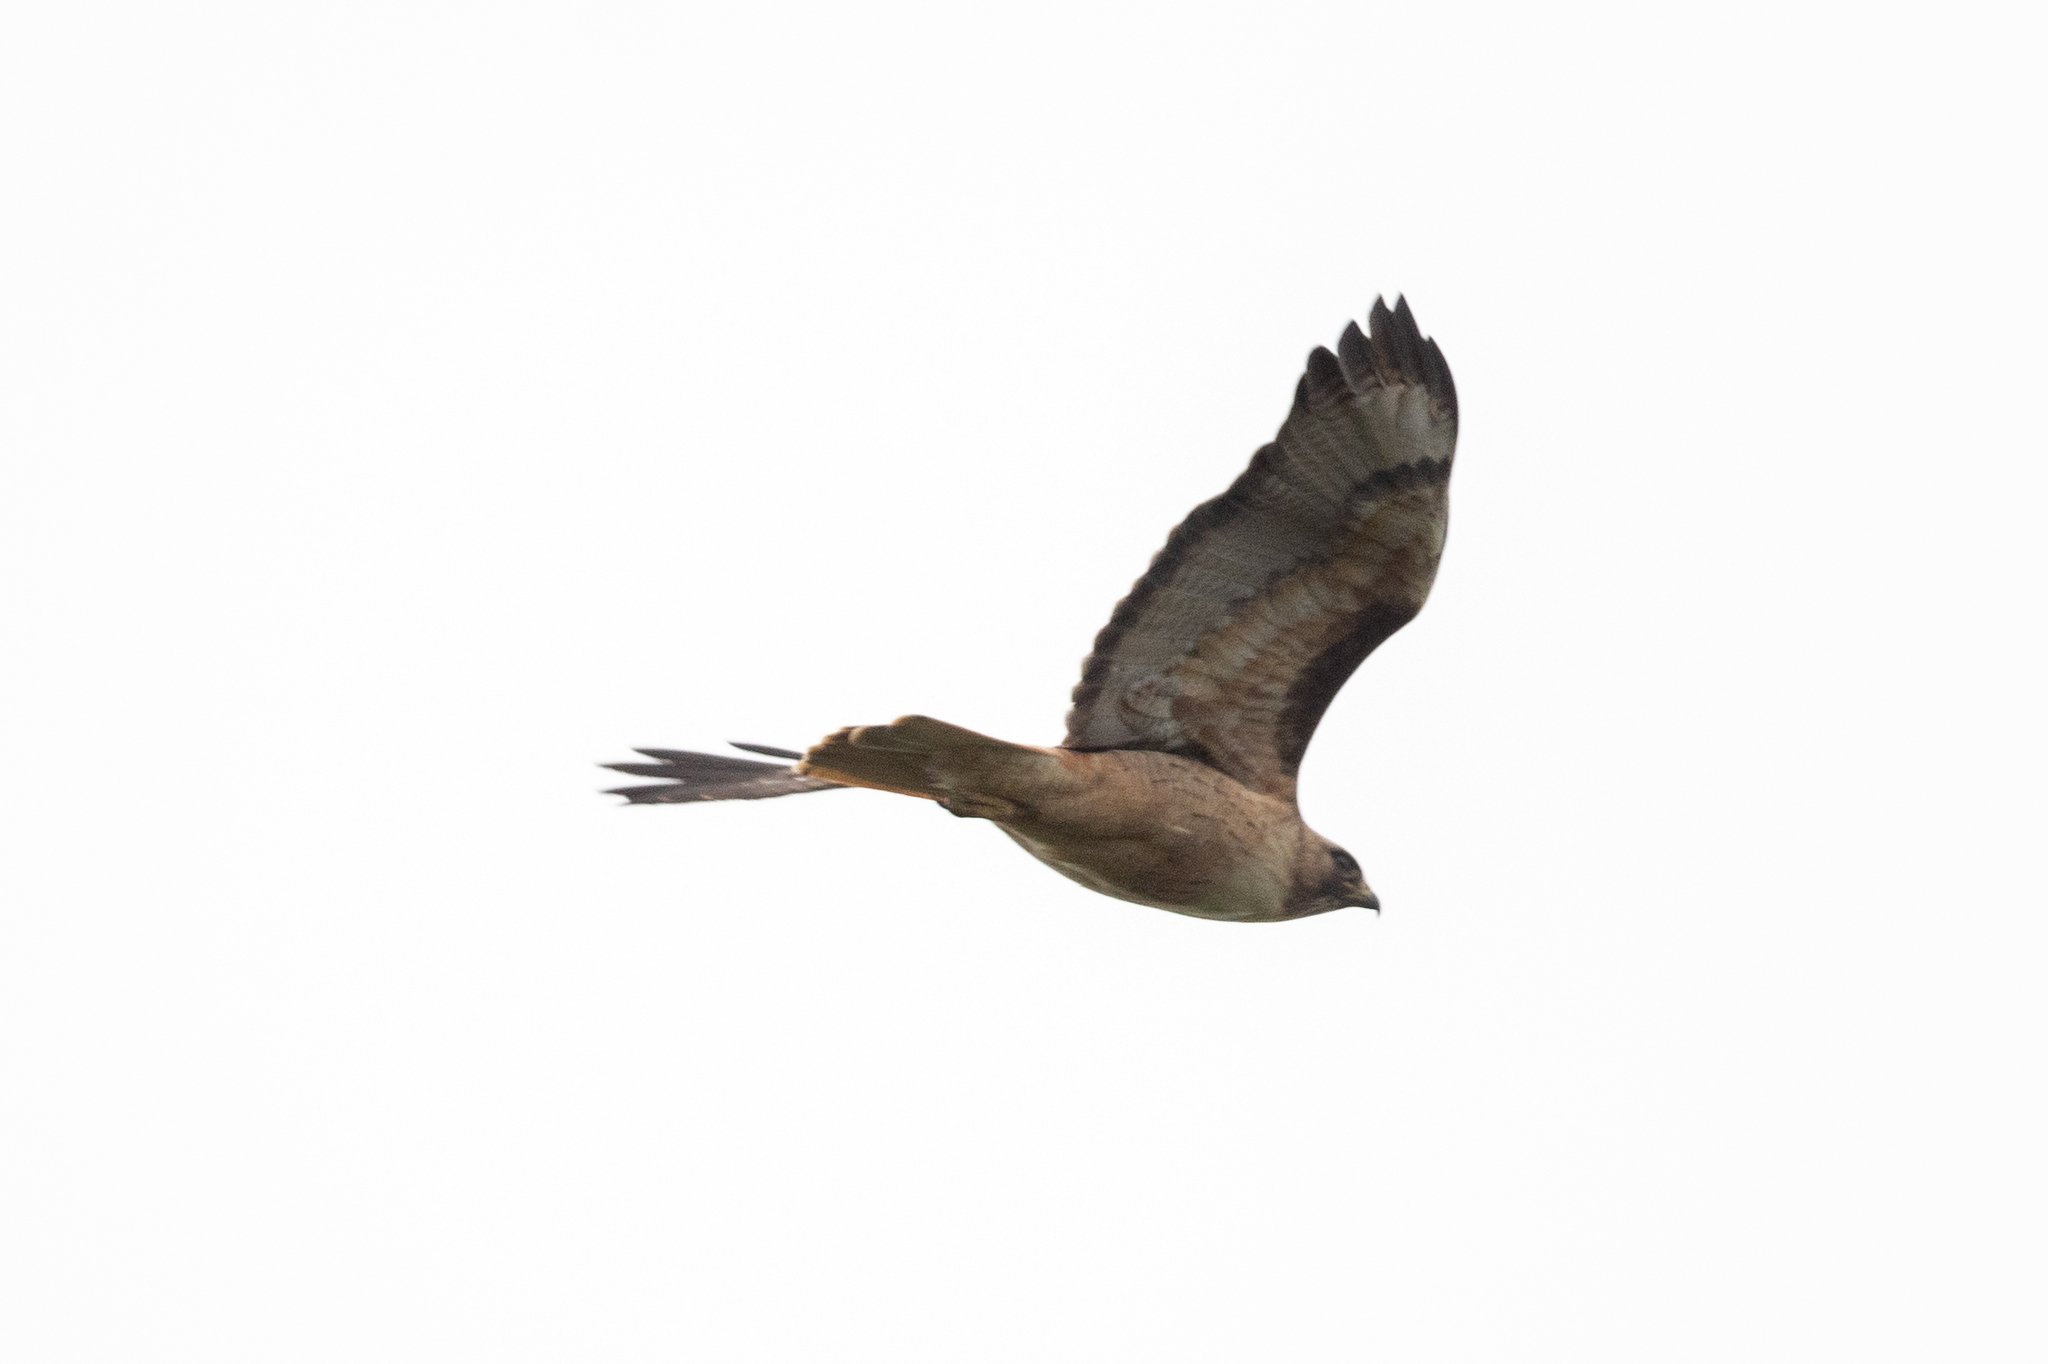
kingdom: Animalia
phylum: Chordata
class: Aves
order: Accipitriformes
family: Accipitridae
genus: Buteo
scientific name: Buteo jamaicensis
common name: Red-tailed hawk
